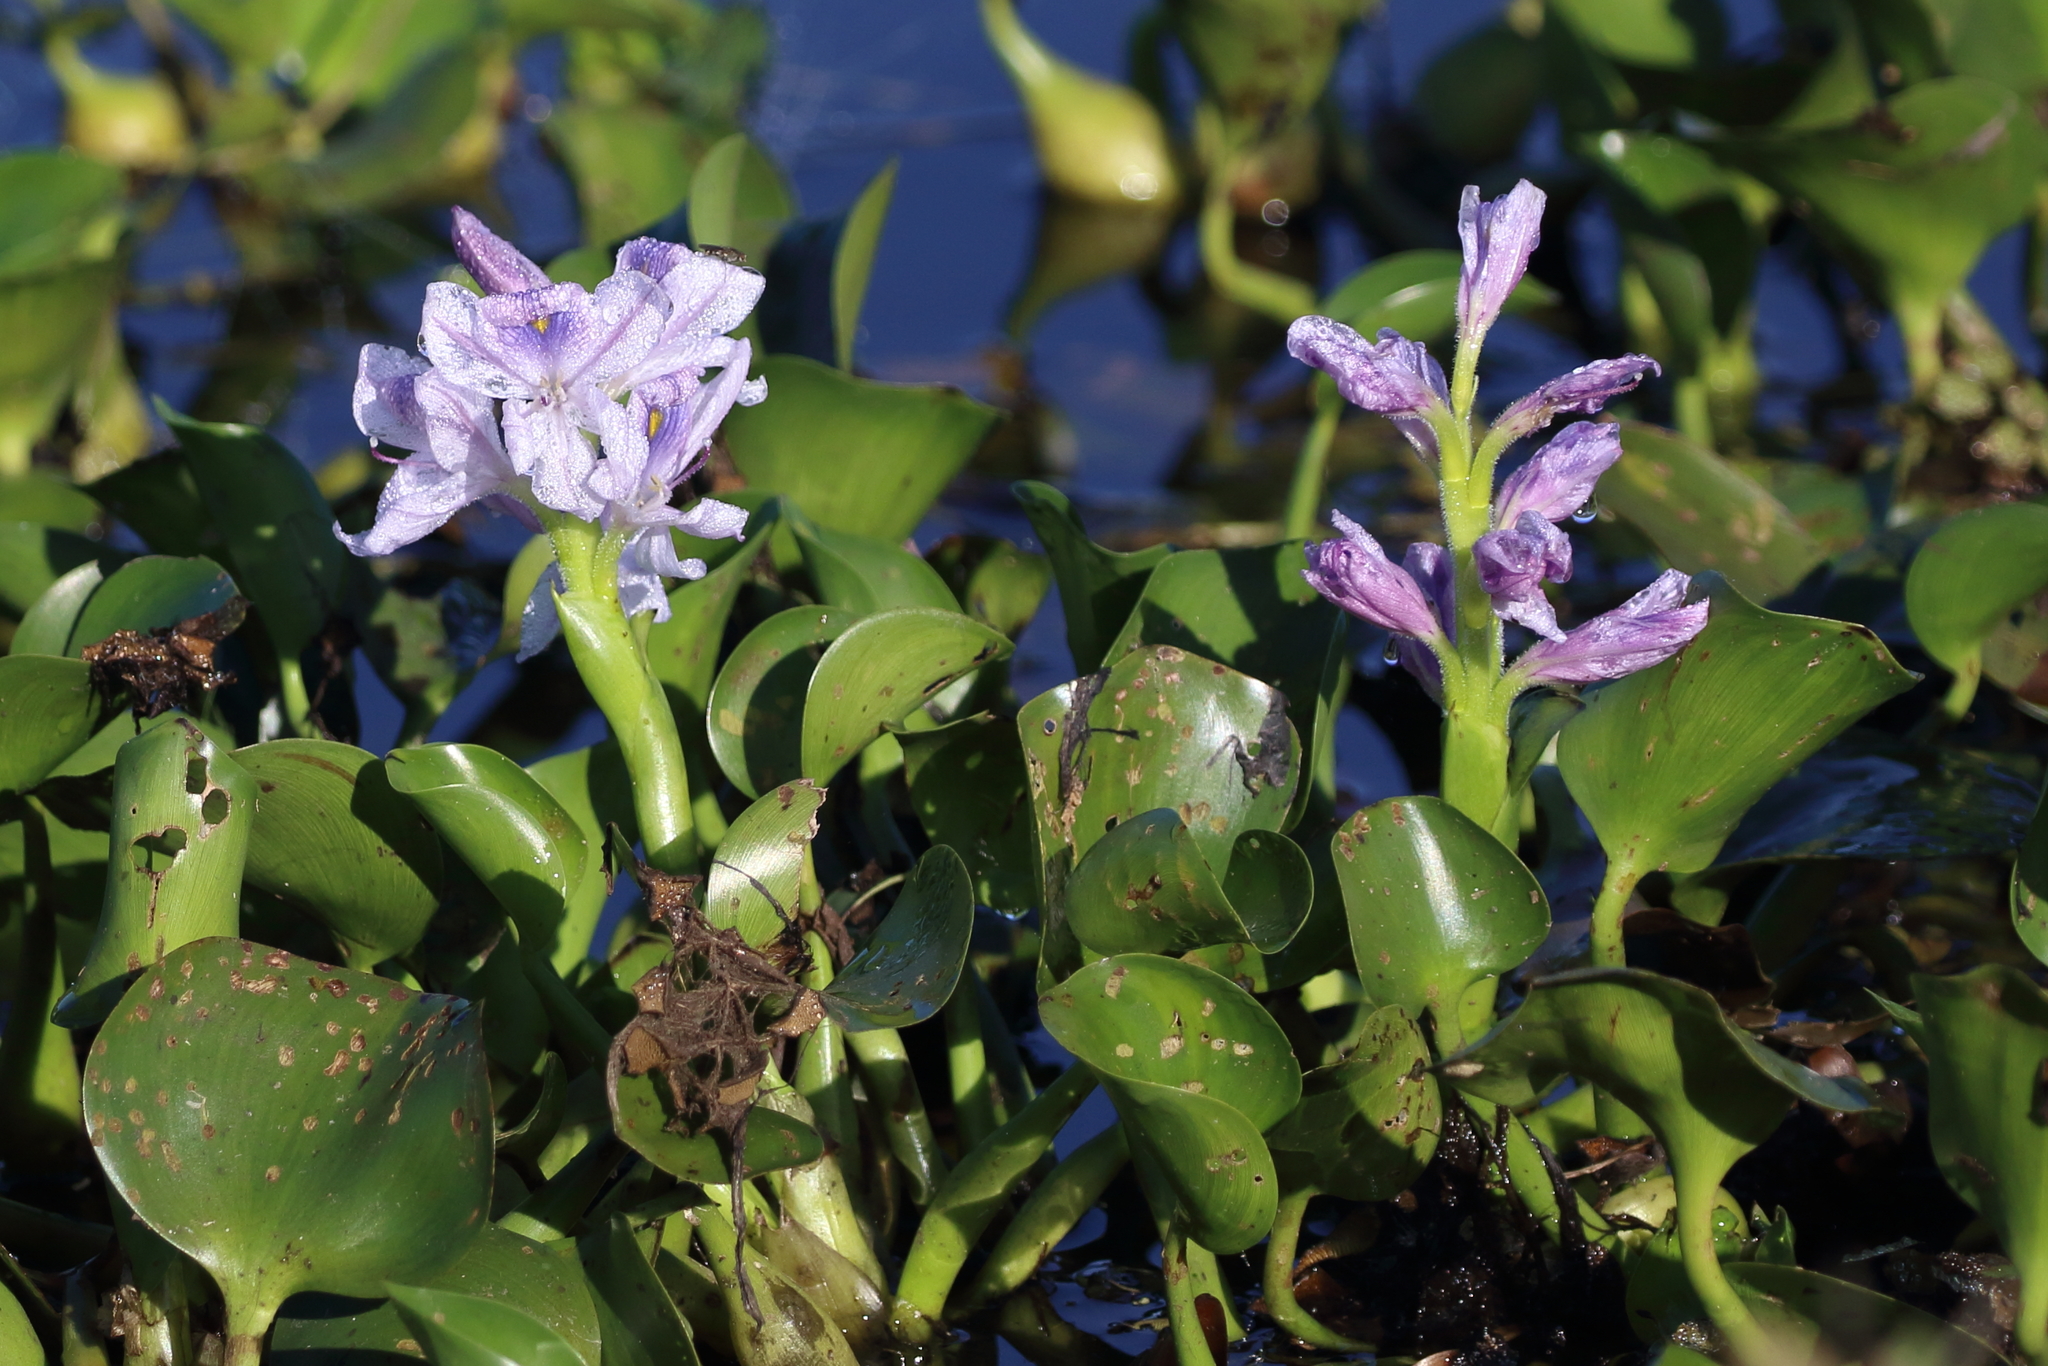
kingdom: Plantae
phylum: Tracheophyta
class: Liliopsida
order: Commelinales
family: Pontederiaceae
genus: Pontederia
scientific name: Pontederia crassipes
